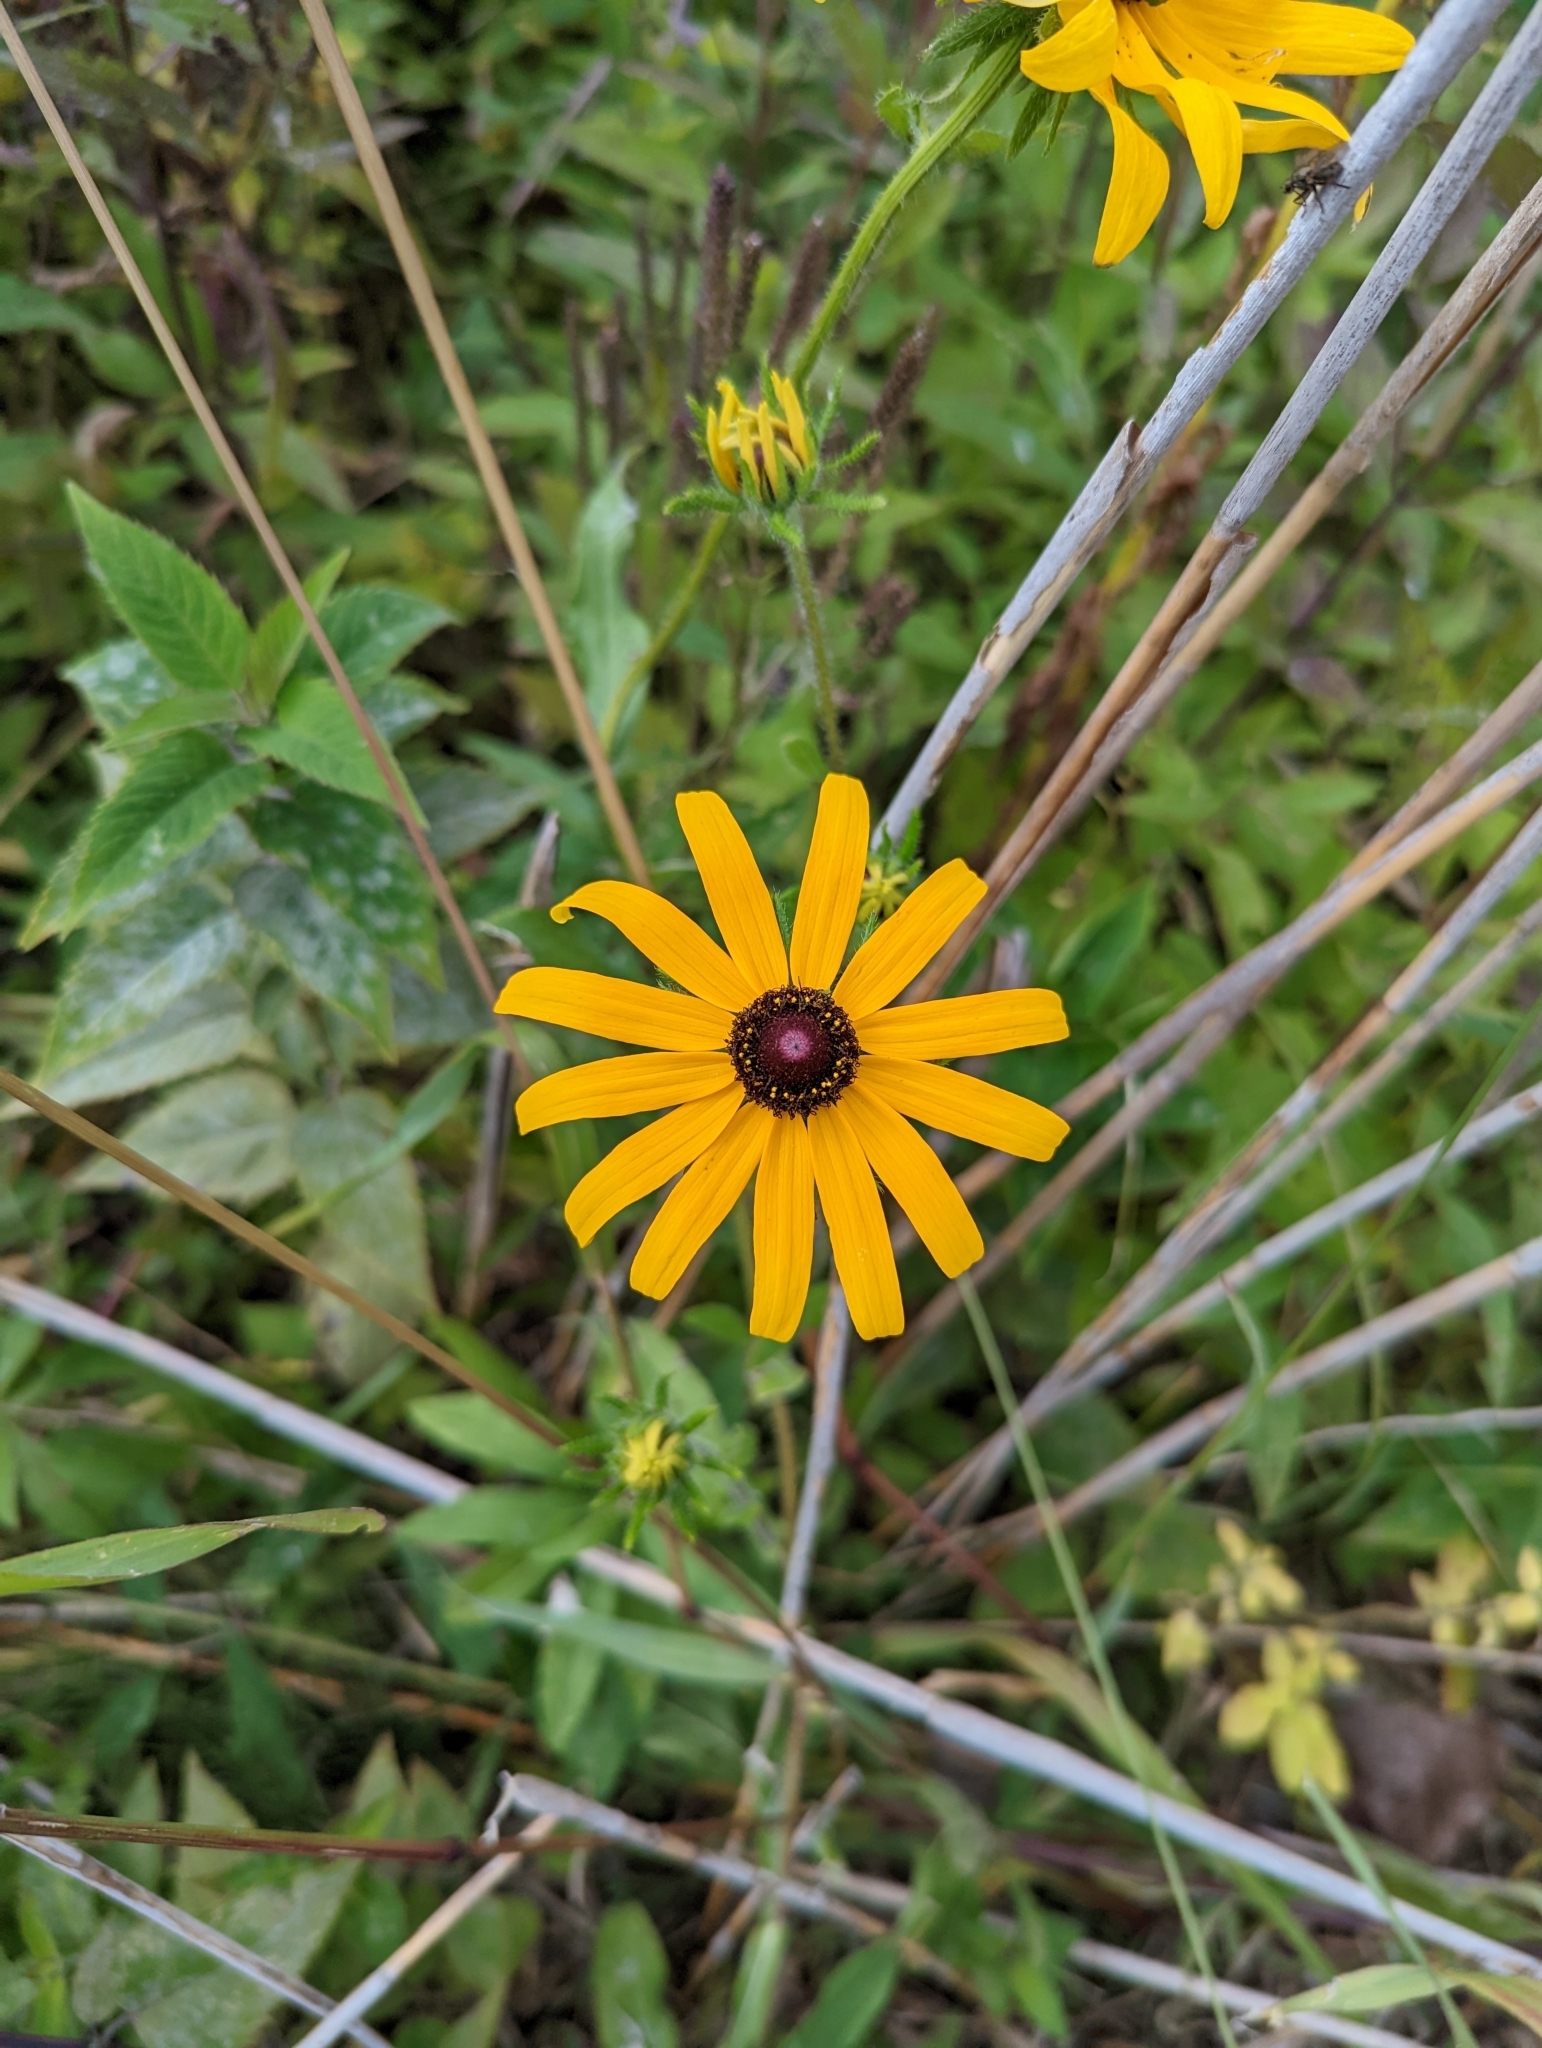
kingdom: Plantae
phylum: Tracheophyta
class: Magnoliopsida
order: Asterales
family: Asteraceae
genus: Rudbeckia
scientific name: Rudbeckia hirta
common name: Black-eyed-susan
